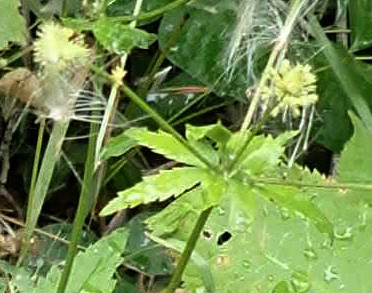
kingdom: Plantae
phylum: Tracheophyta
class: Magnoliopsida
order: Apiales
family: Apiaceae
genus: Sanicula
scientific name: Sanicula marilandica
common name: Black snakeroot
